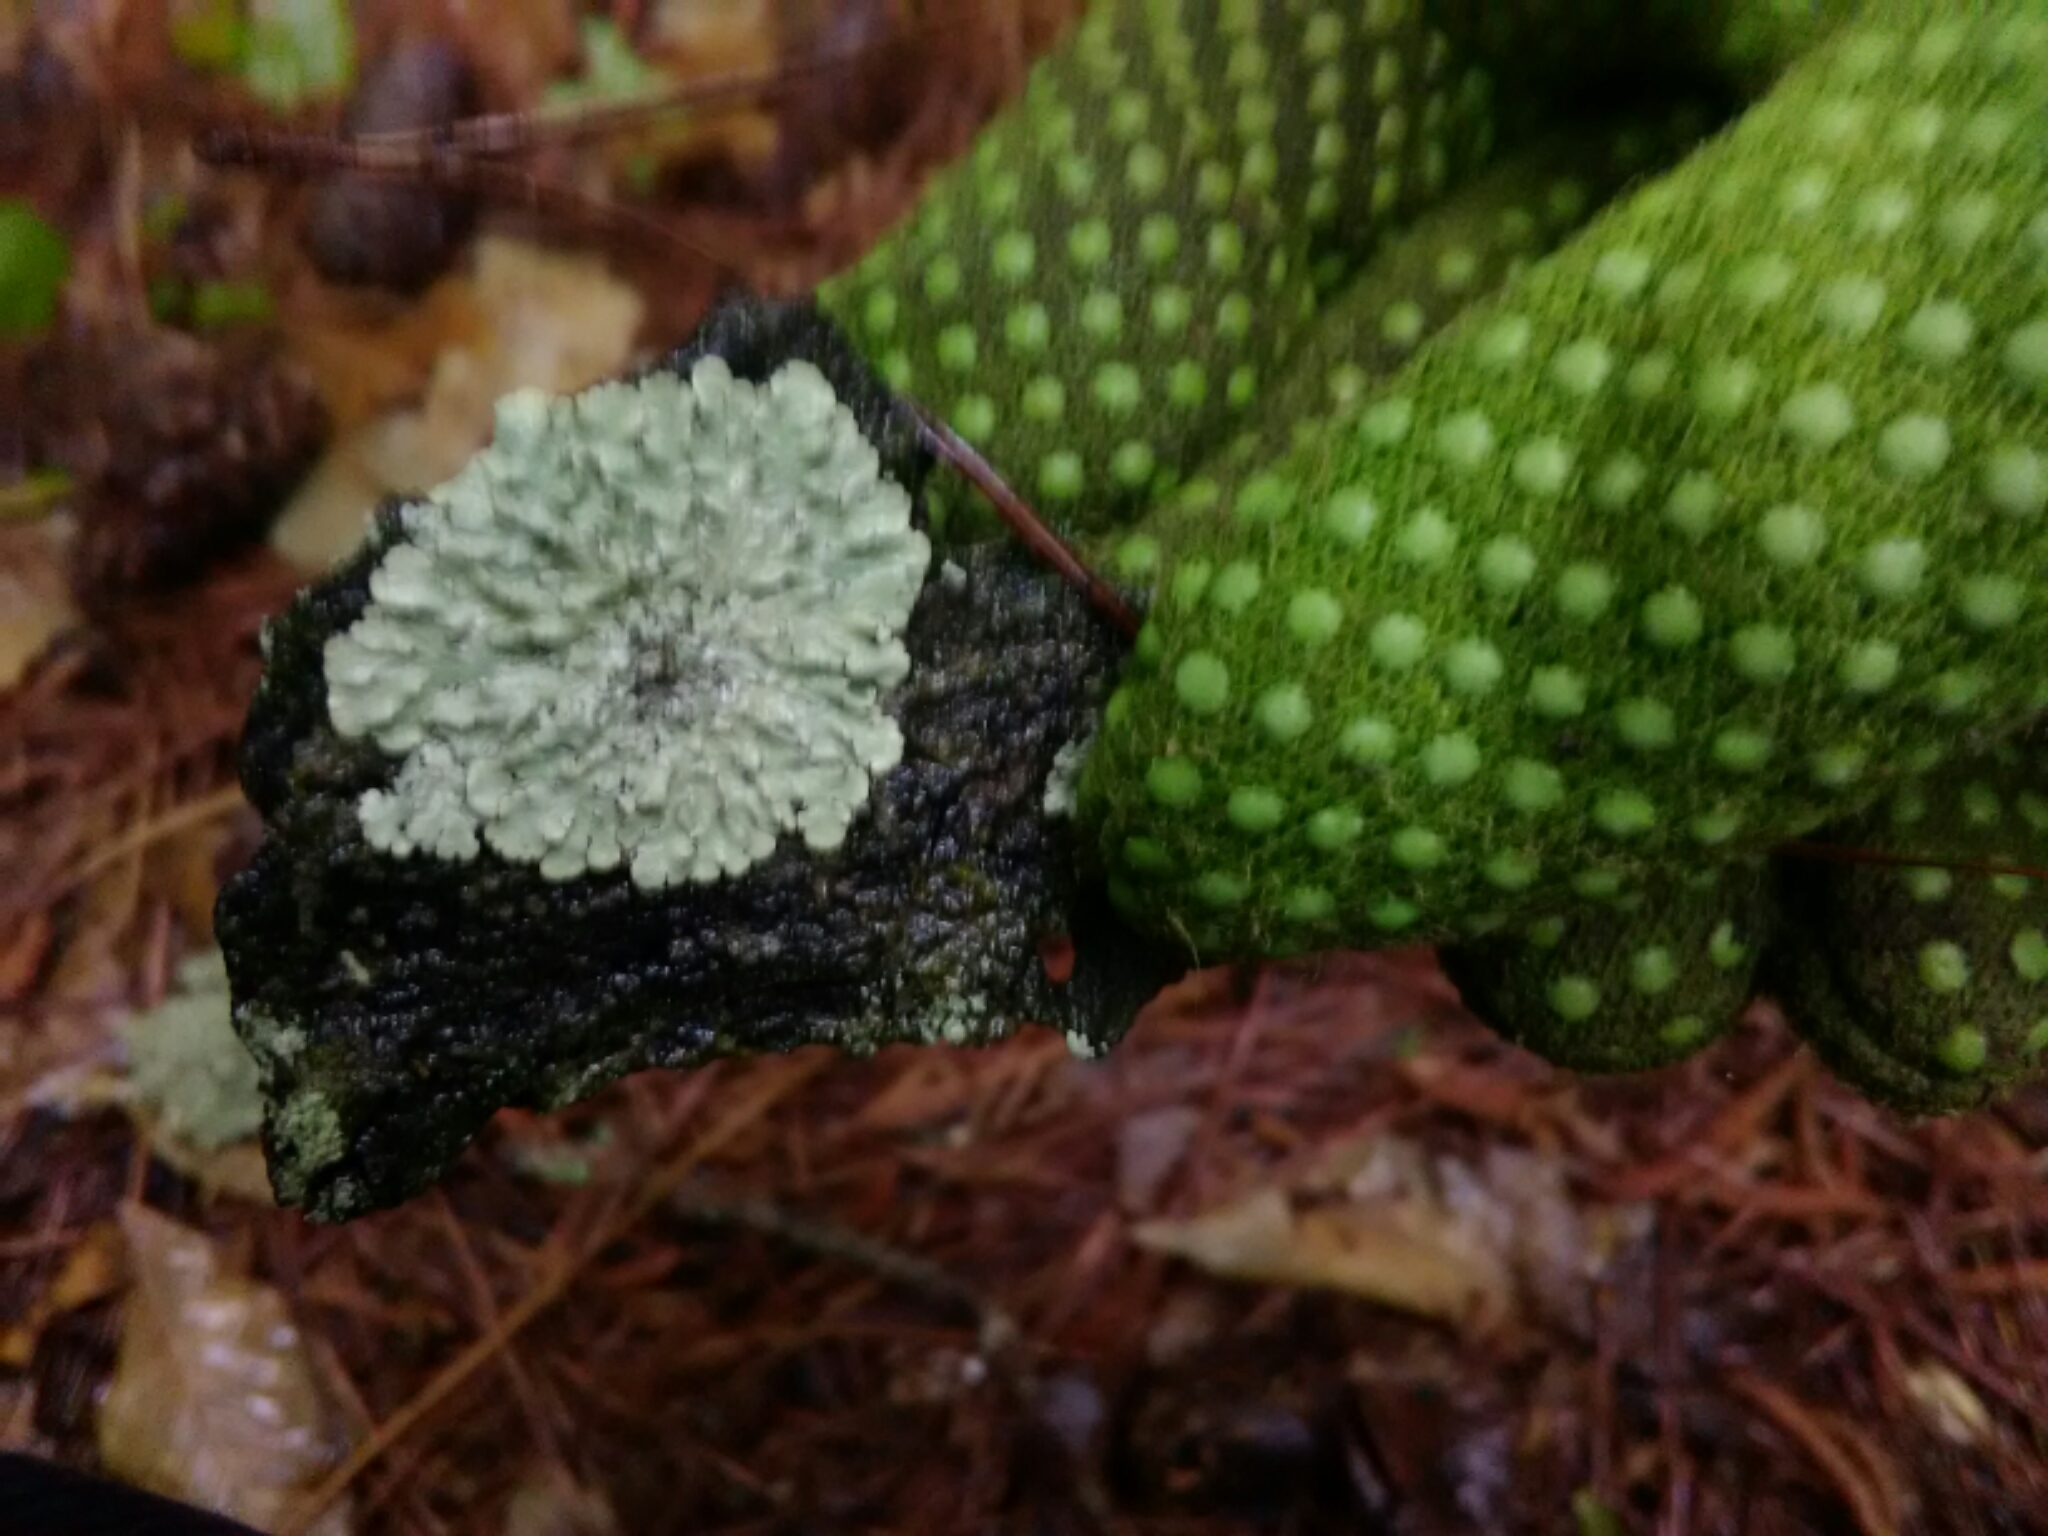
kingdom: Fungi
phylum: Ascomycota
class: Lecanoromycetes
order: Lecanorales
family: Parmeliaceae
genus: Flavoparmelia
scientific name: Flavoparmelia caperata
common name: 40-mile per hour lichen
